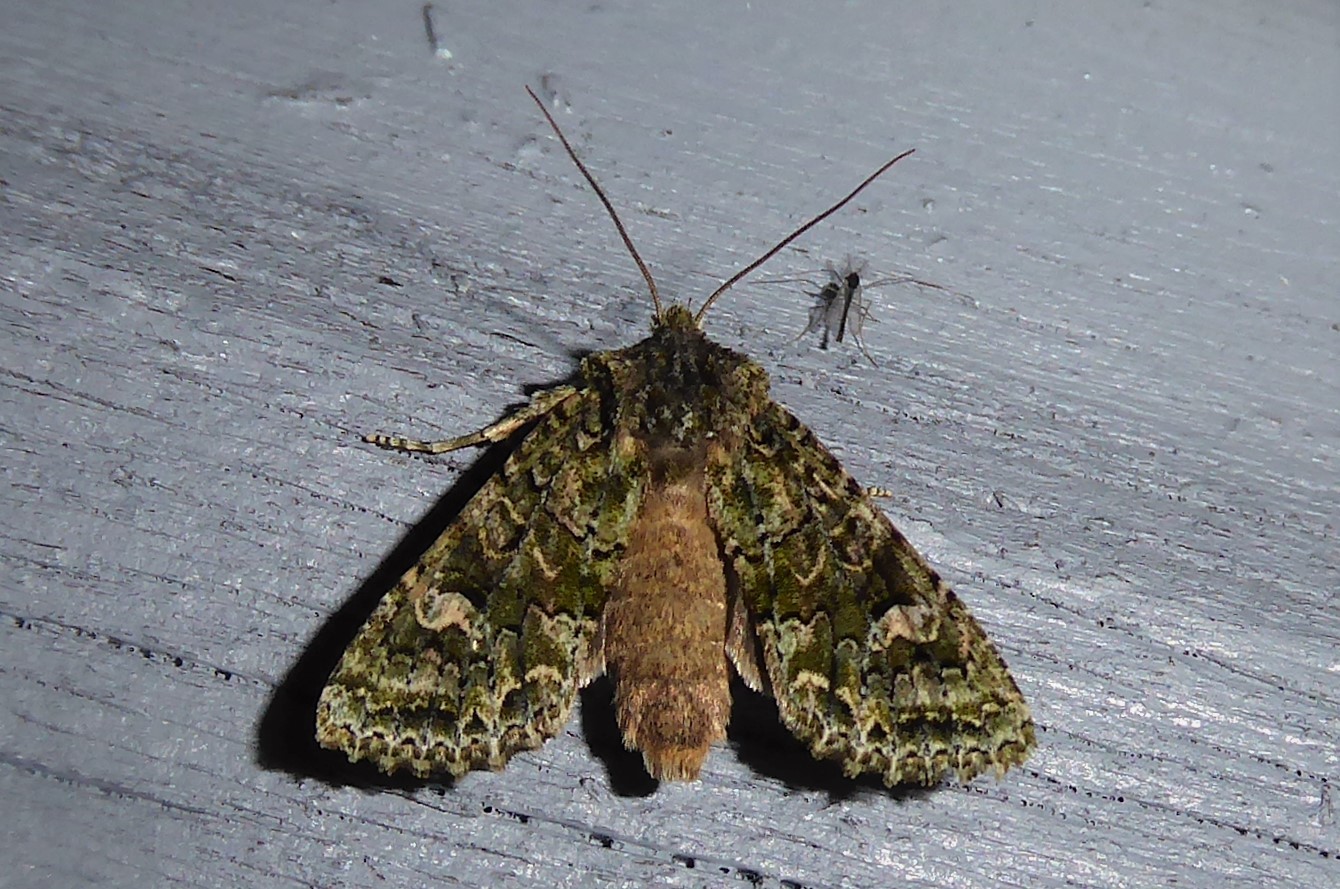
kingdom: Animalia
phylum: Arthropoda
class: Insecta
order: Lepidoptera
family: Noctuidae
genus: Ichneutica
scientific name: Ichneutica
